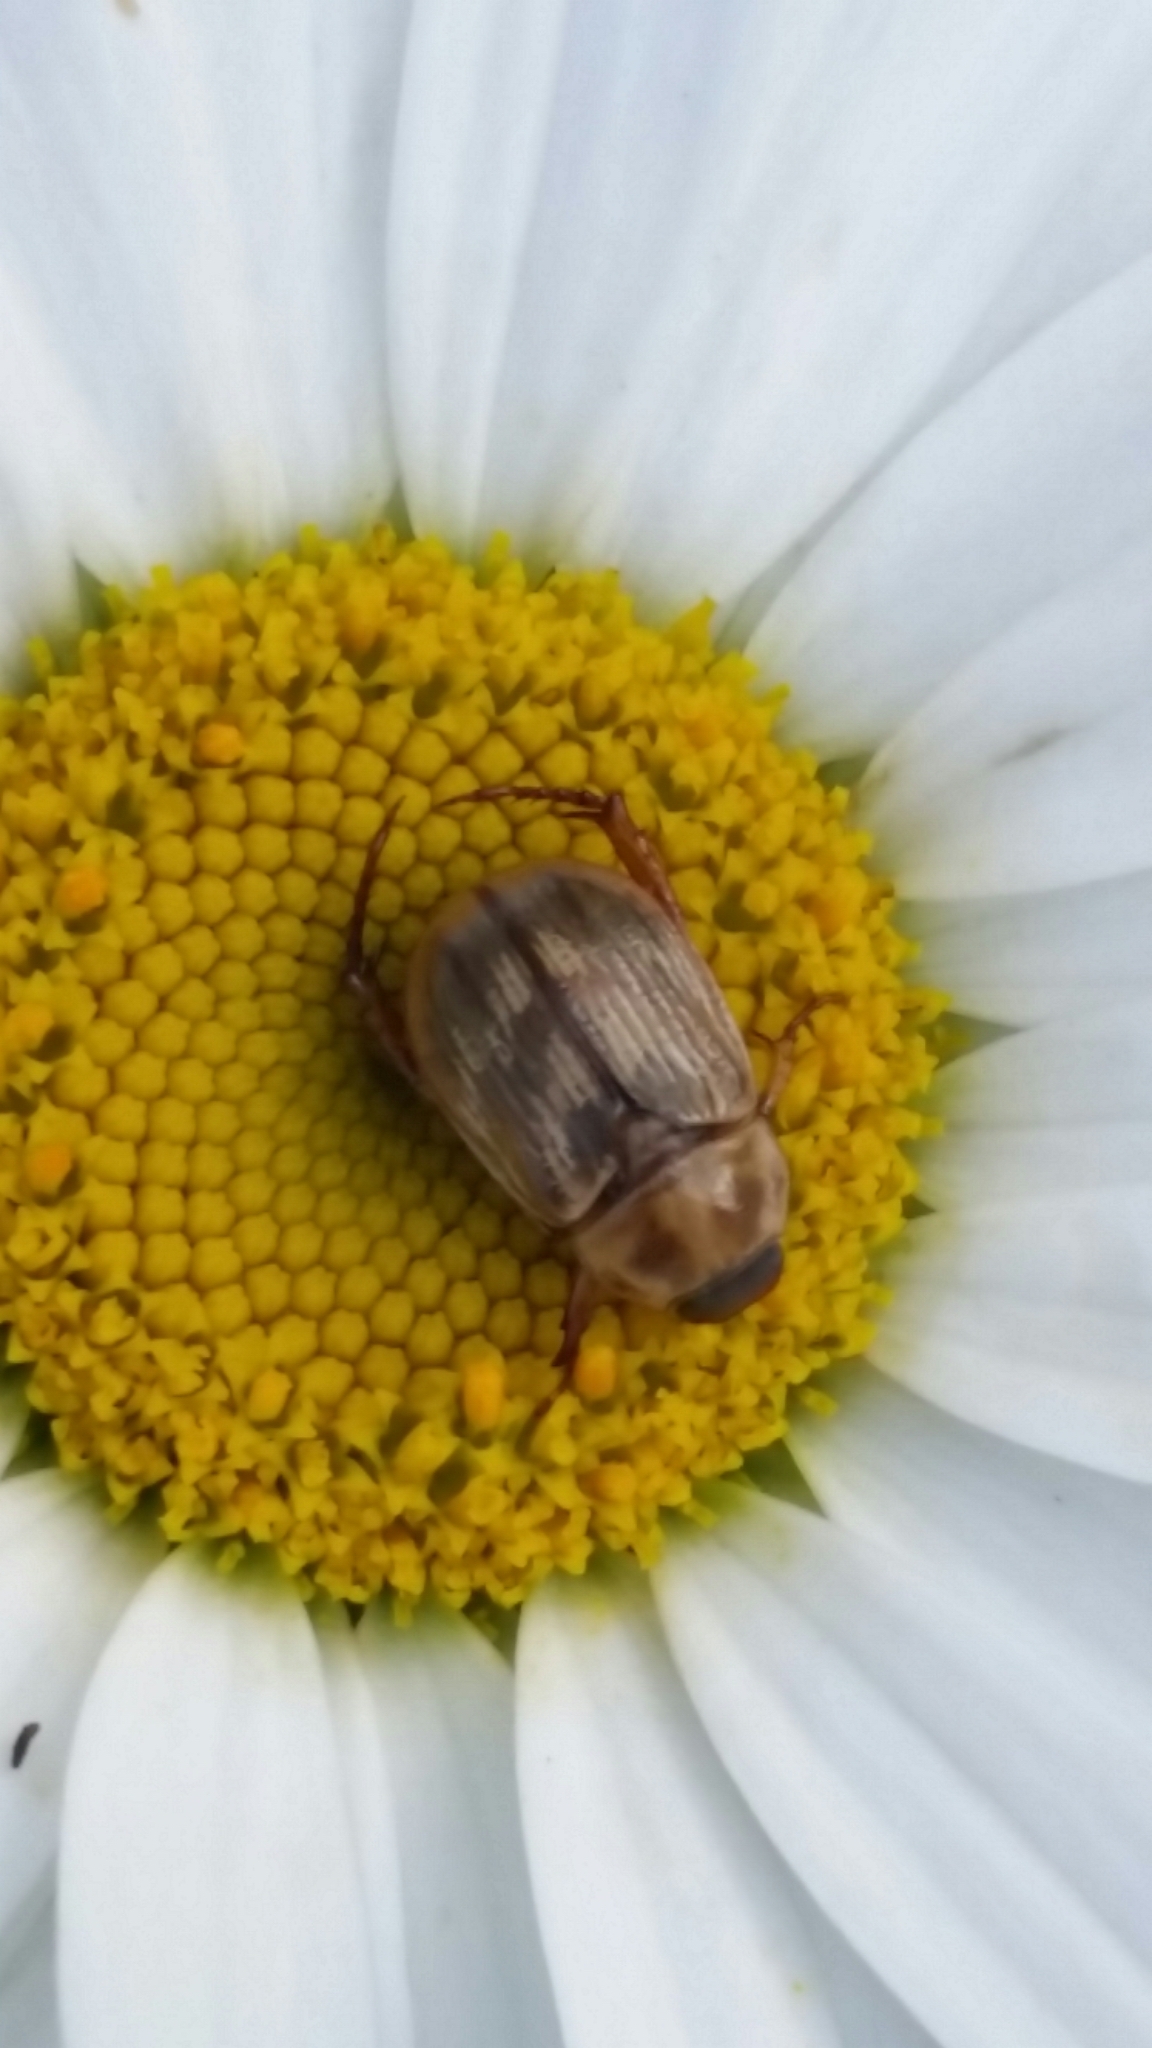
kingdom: Animalia
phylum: Arthropoda
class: Insecta
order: Coleoptera
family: Scarabaeidae
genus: Exomala
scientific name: Exomala orientalis
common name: Oriental beetle
